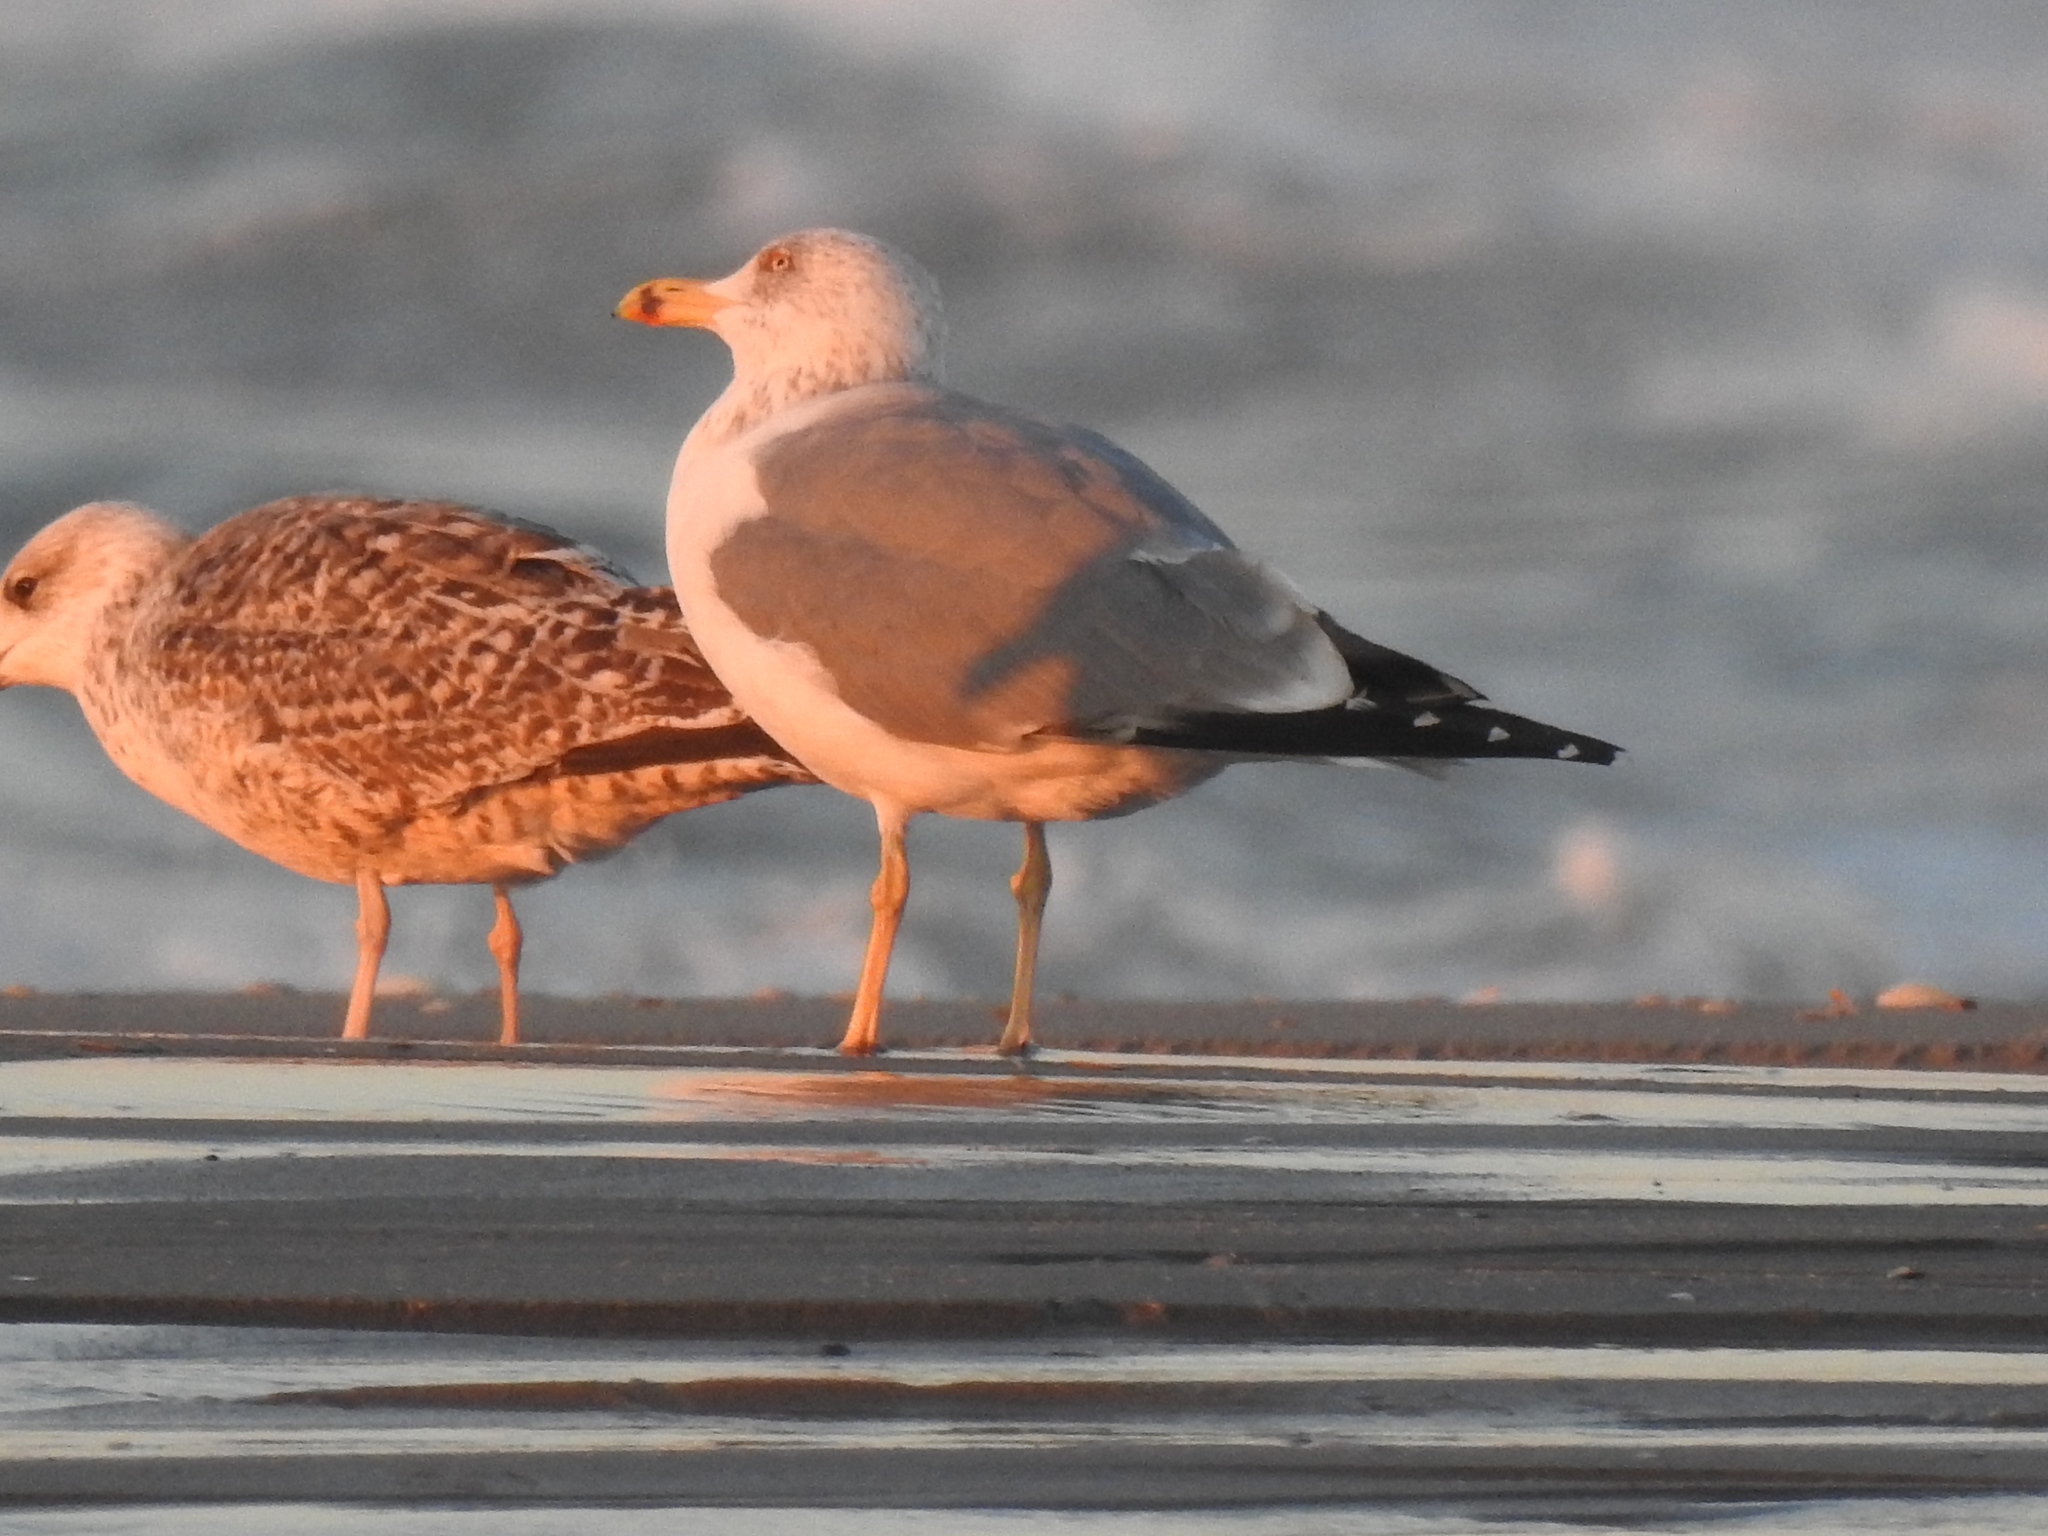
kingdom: Animalia
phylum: Chordata
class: Aves
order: Charadriiformes
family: Laridae
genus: Larus
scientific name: Larus michahellis
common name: Yellow-legged gull
